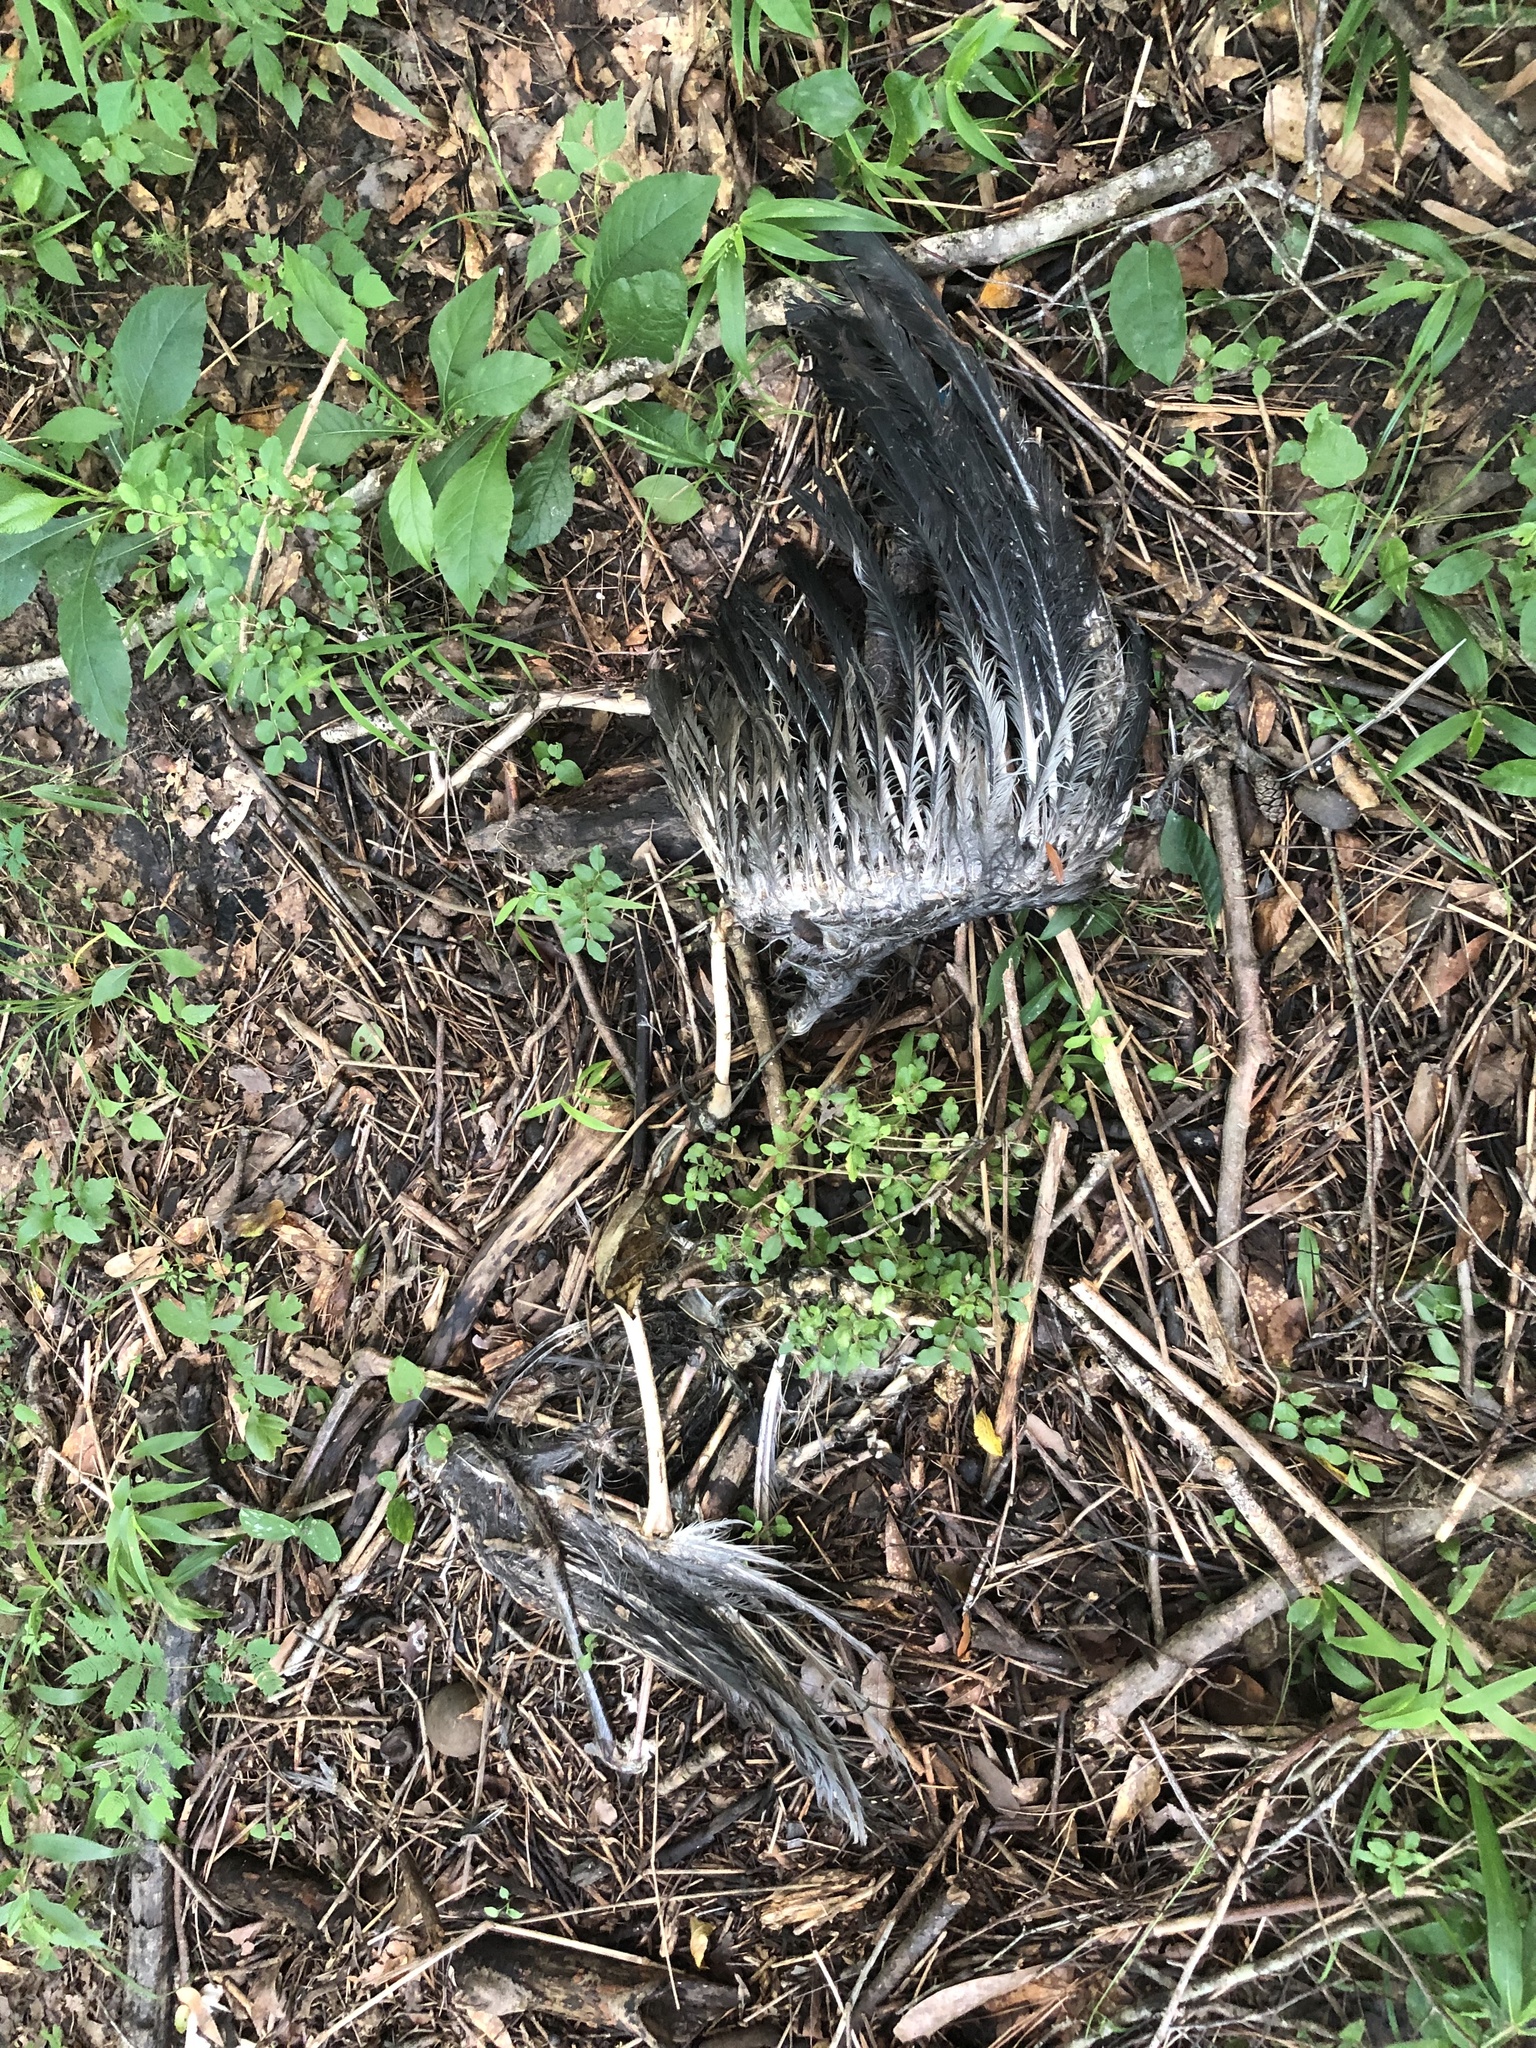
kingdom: Animalia
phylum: Chordata
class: Aves
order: Pelecaniformes
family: Ardeidae
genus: Ardea
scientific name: Ardea herodias
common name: Great blue heron
